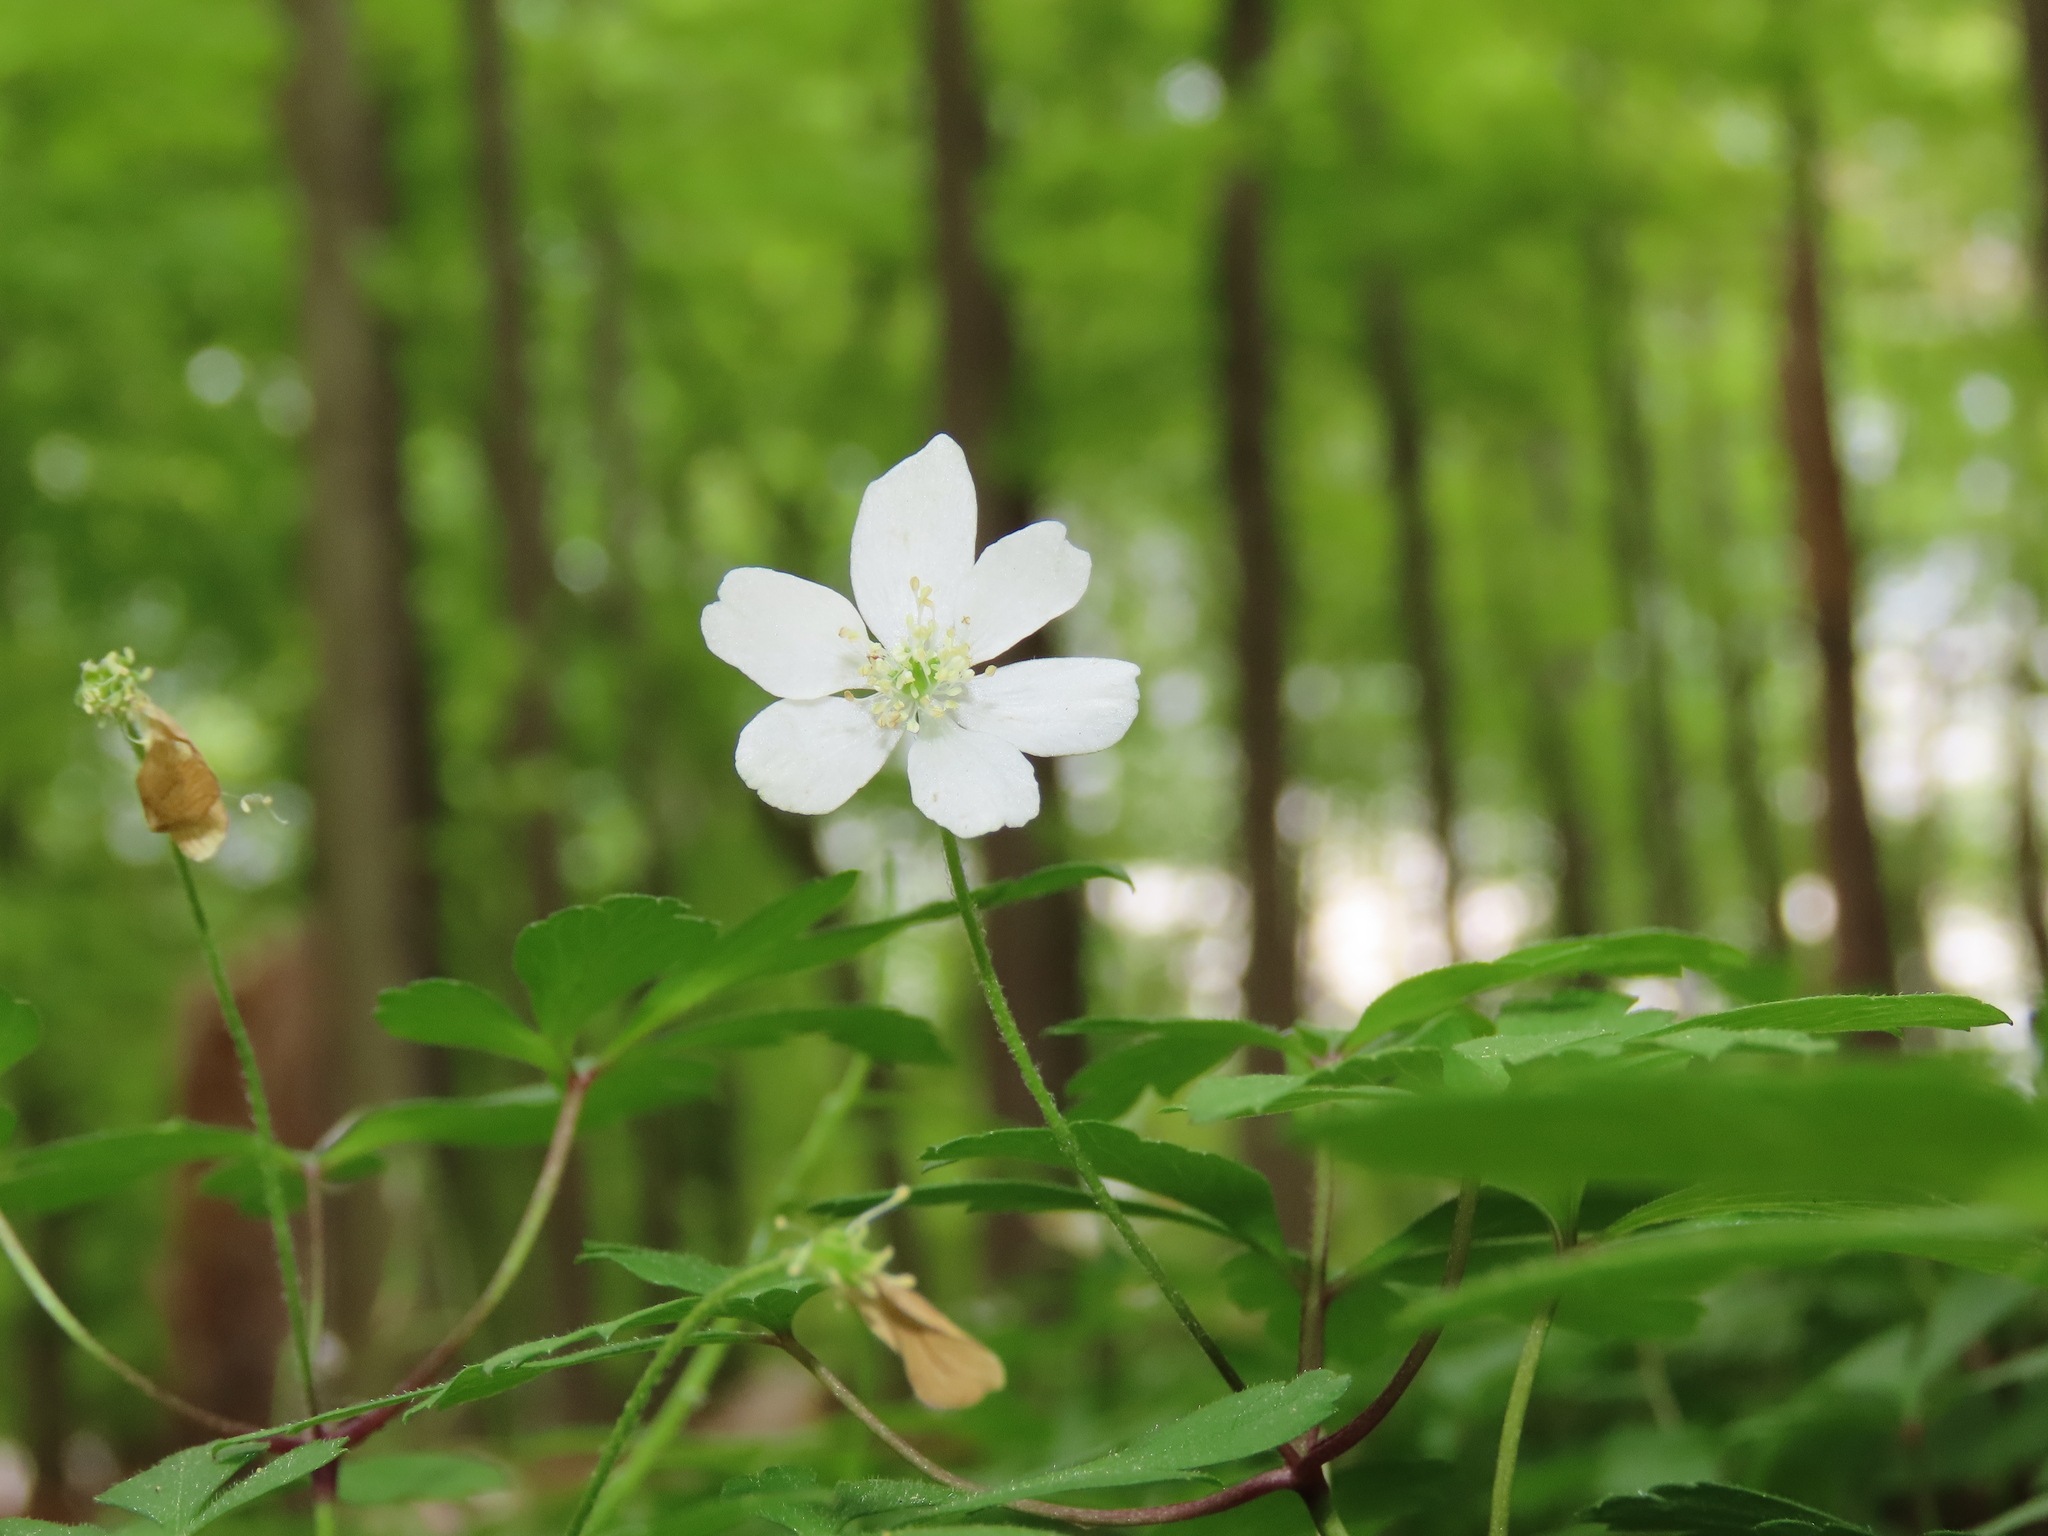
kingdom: Plantae
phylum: Tracheophyta
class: Magnoliopsida
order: Ranunculales
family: Ranunculaceae
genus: Anemone
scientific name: Anemone quinquefolia
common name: Wood anemone
